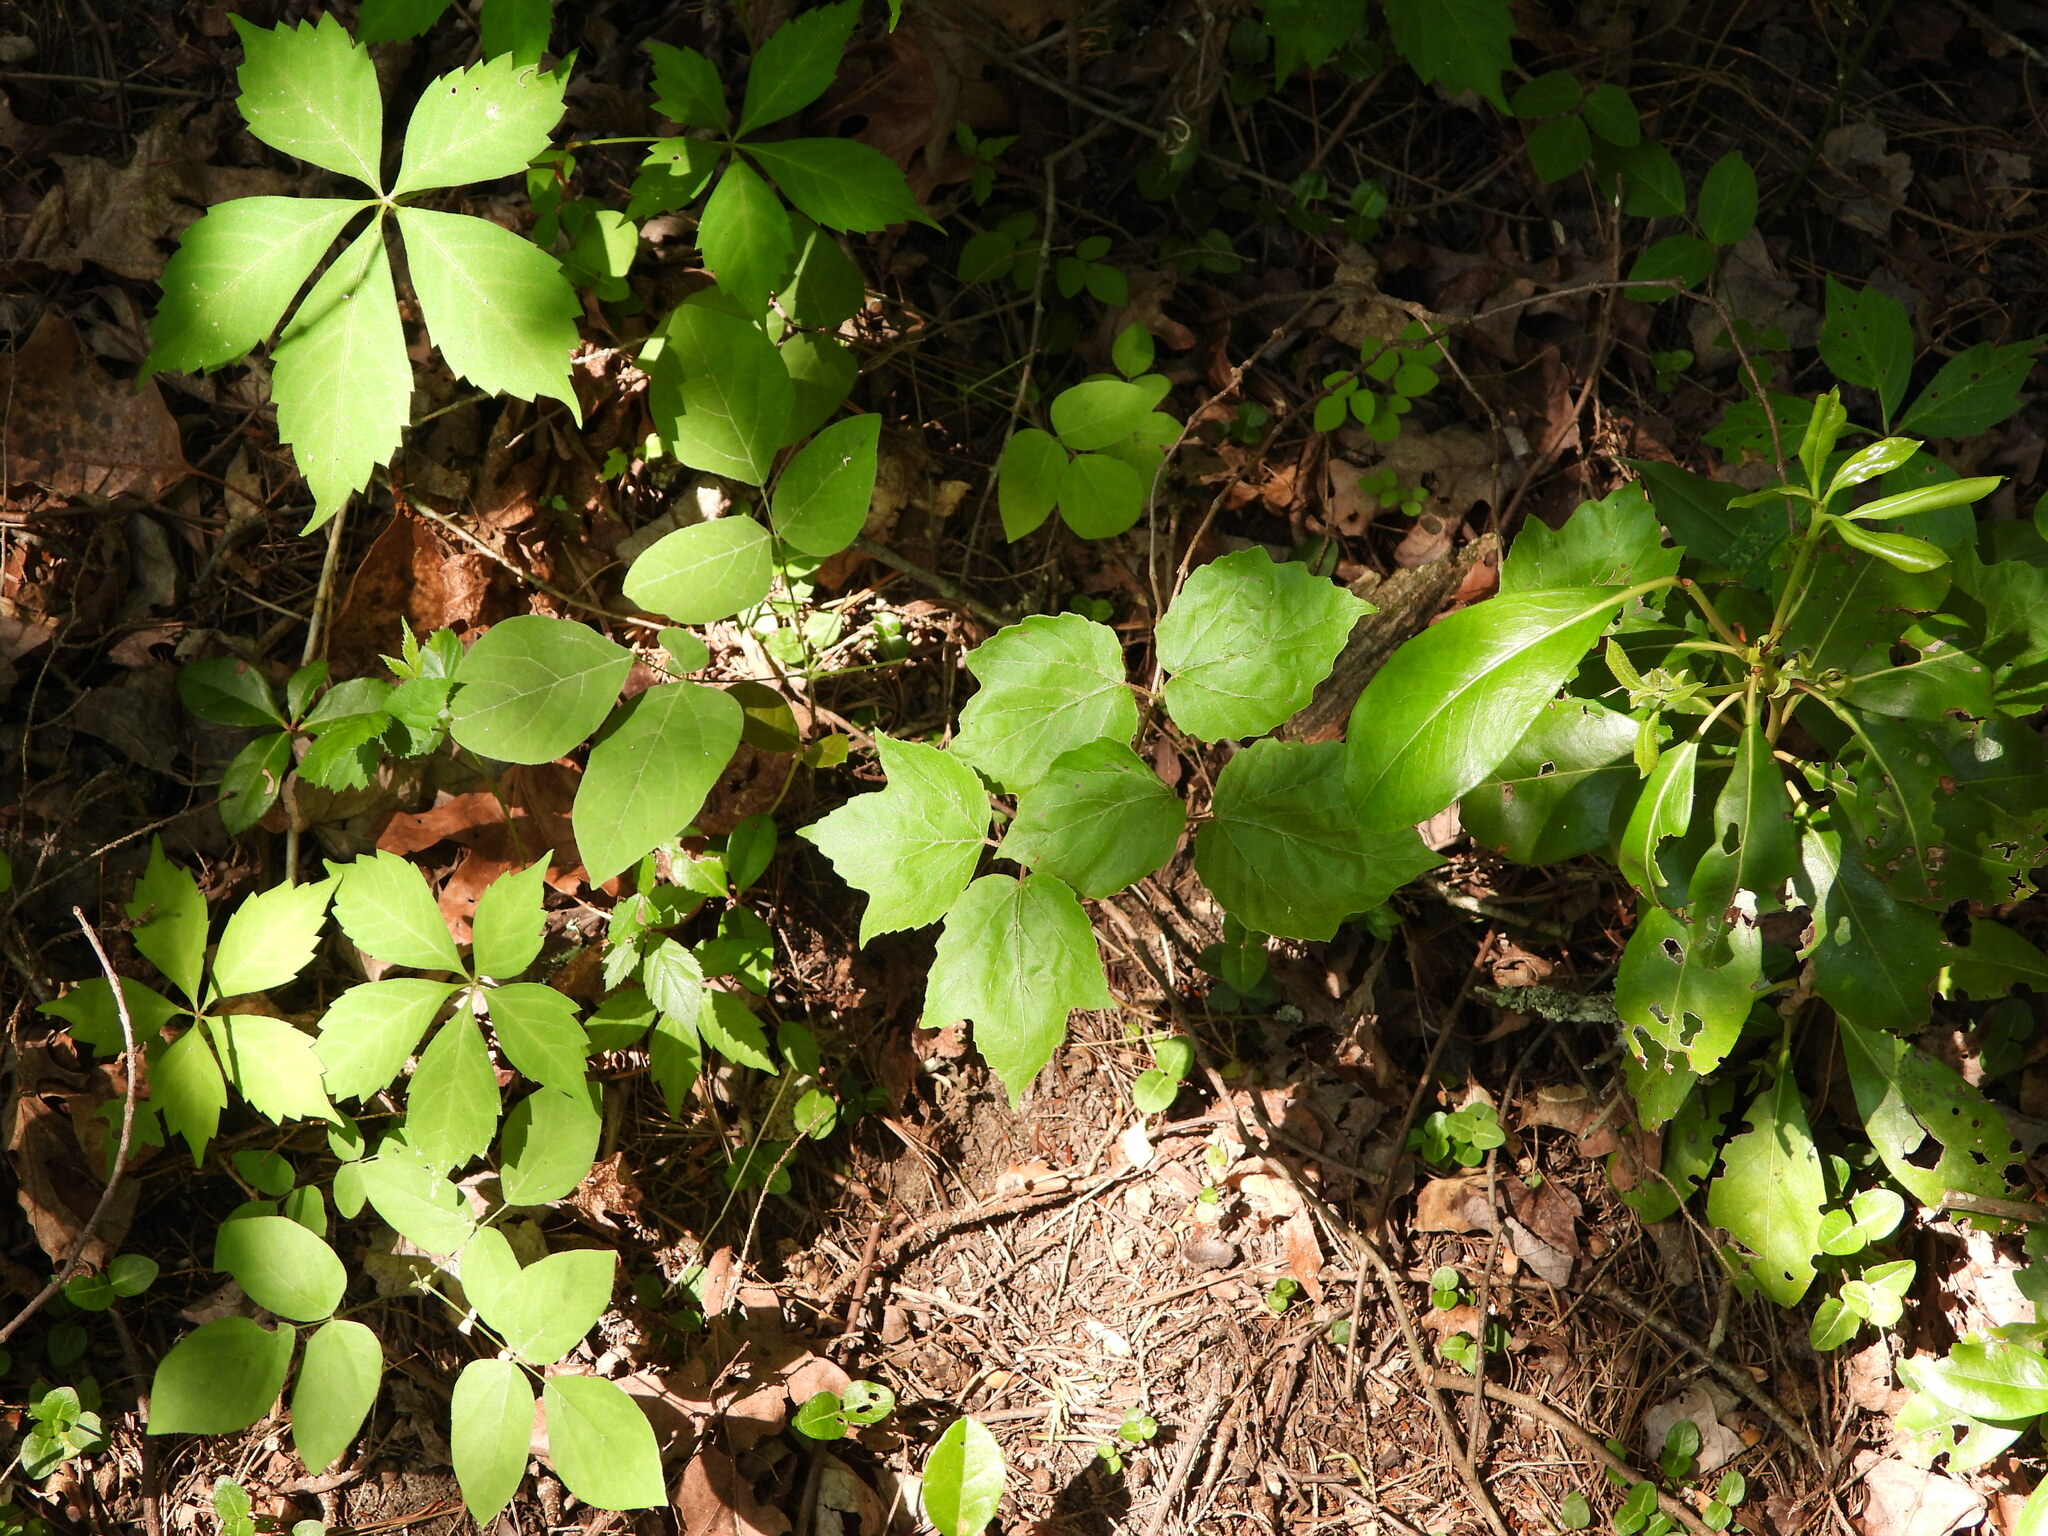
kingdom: Plantae
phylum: Tracheophyta
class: Magnoliopsida
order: Saxifragales
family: Hamamelidaceae
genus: Hamamelis
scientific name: Hamamelis virginiana
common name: Witch-hazel
